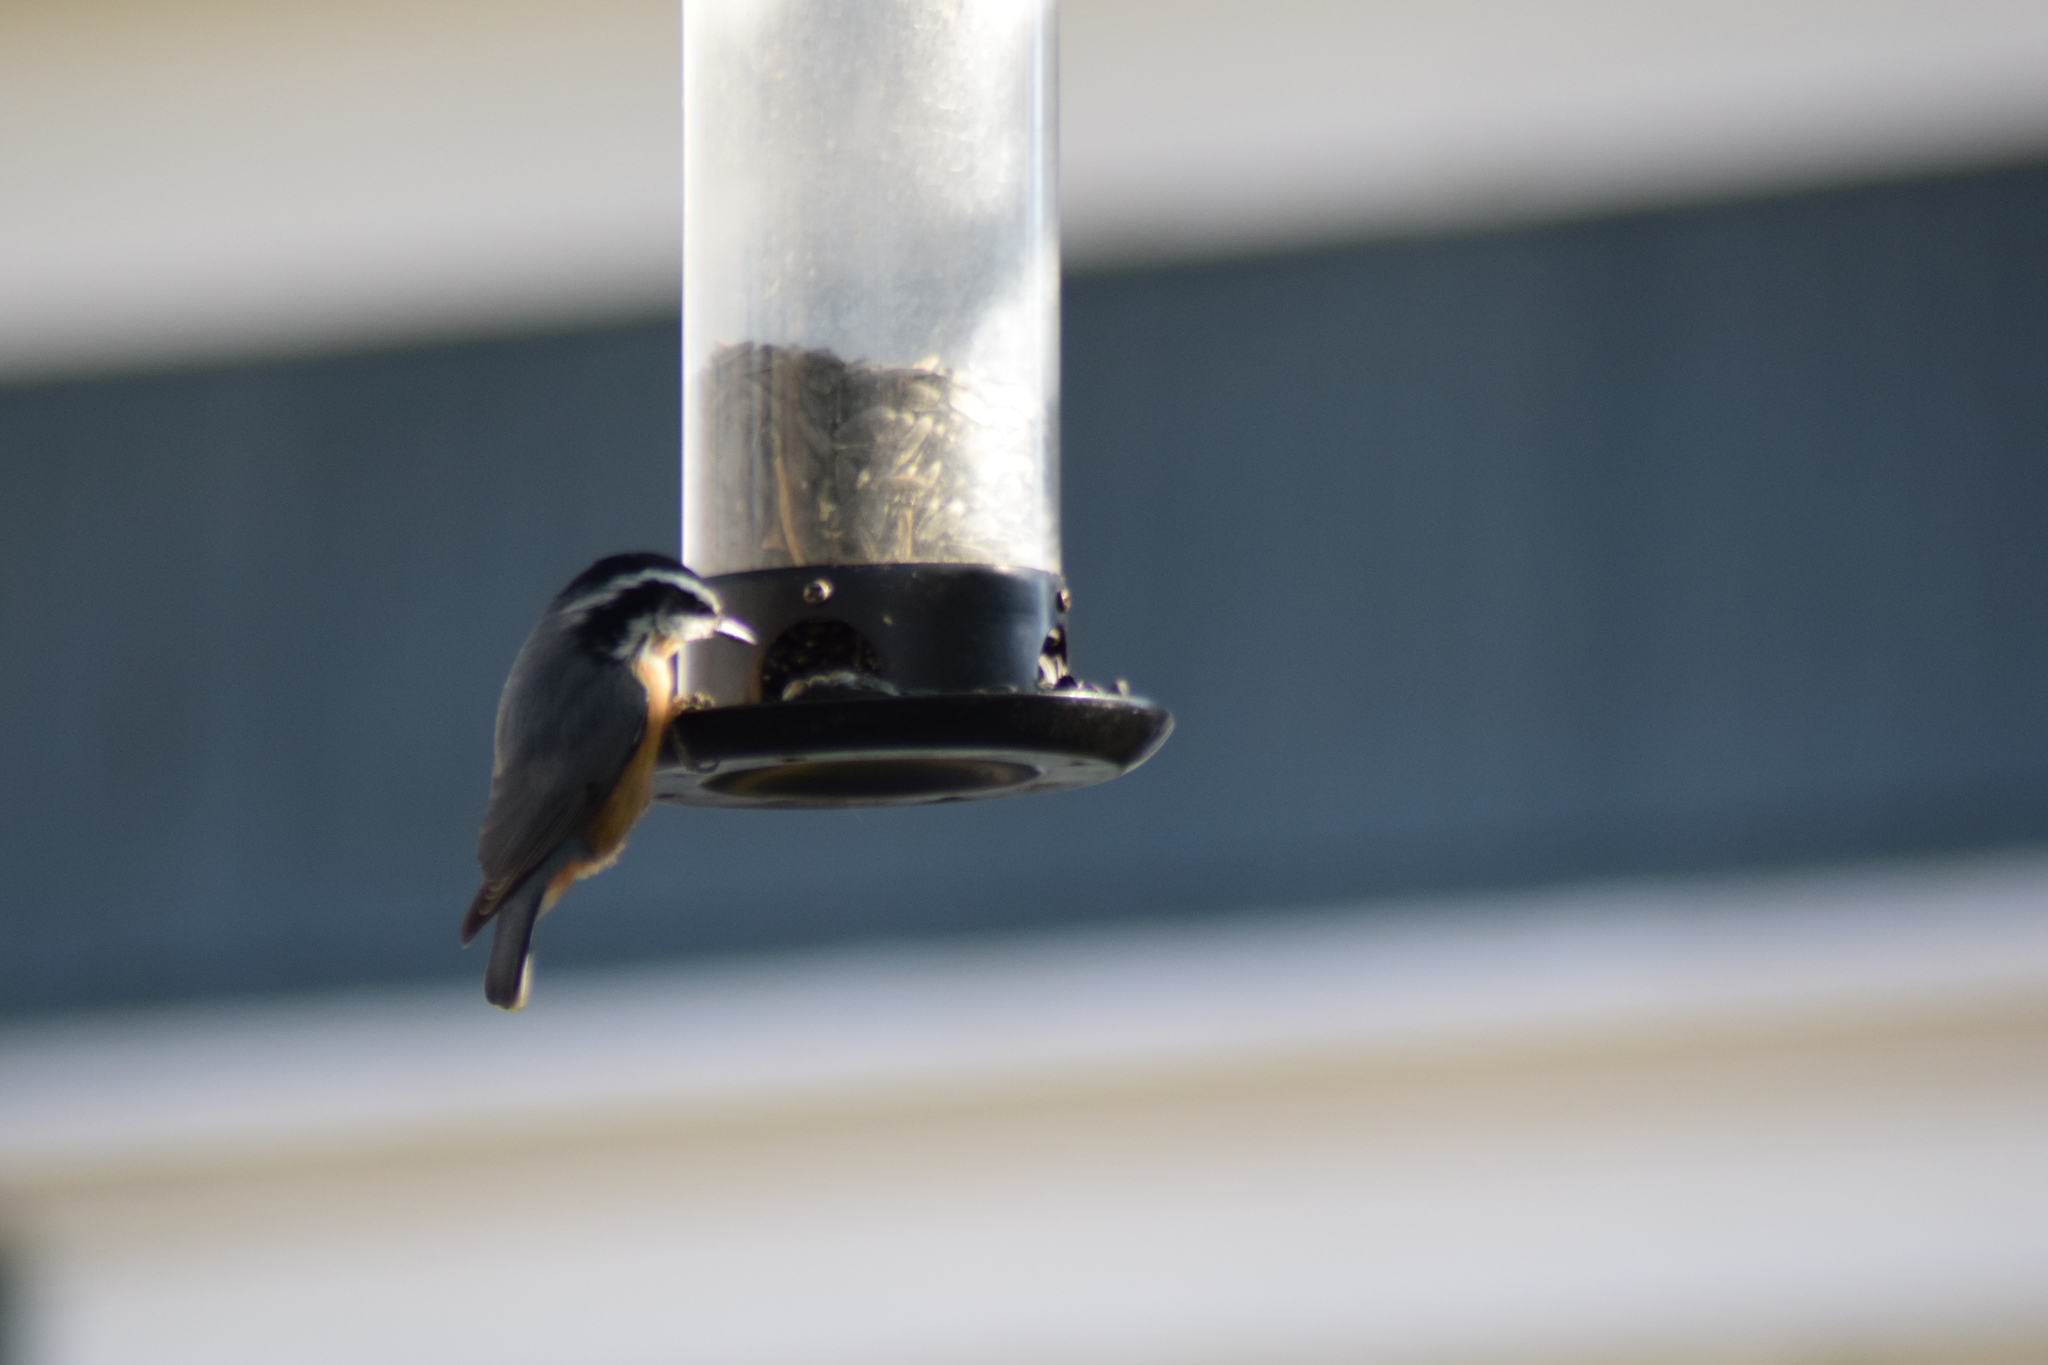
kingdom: Animalia
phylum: Chordata
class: Aves
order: Passeriformes
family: Sittidae
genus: Sitta
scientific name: Sitta canadensis
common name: Red-breasted nuthatch
